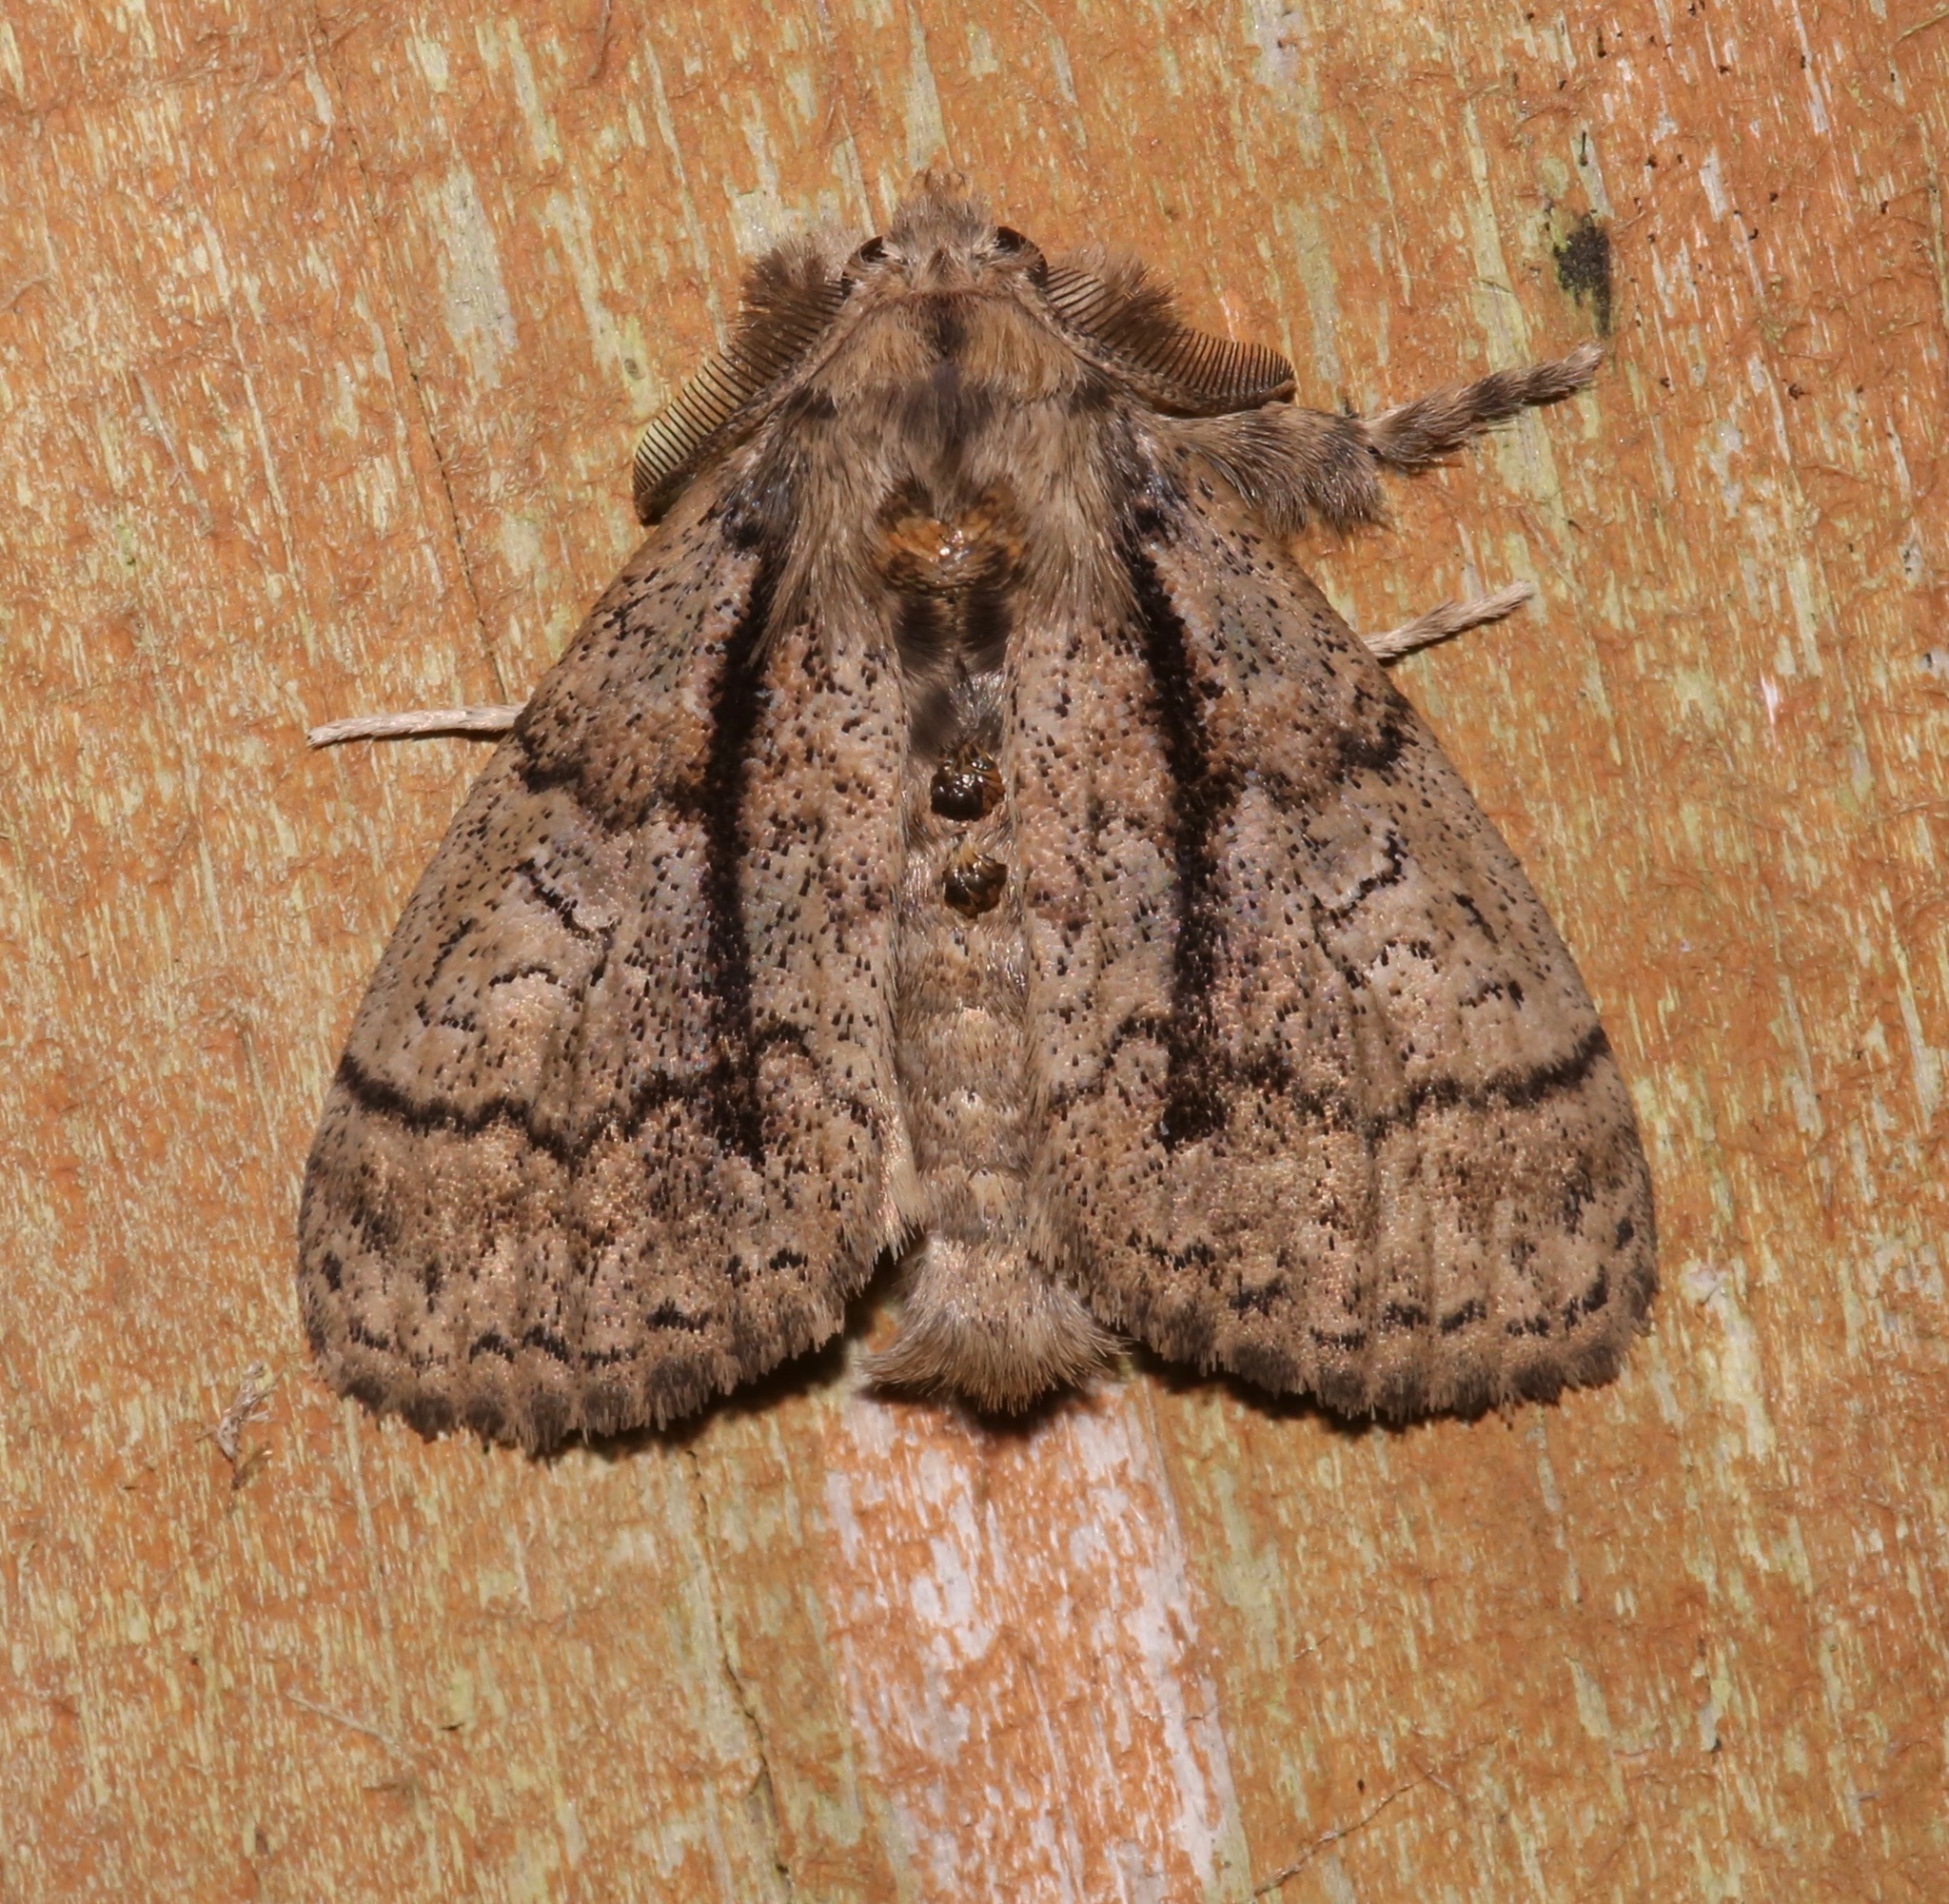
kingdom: Animalia
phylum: Arthropoda
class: Insecta
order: Lepidoptera
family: Erebidae
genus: Dasychira
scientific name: Dasychira tephra
